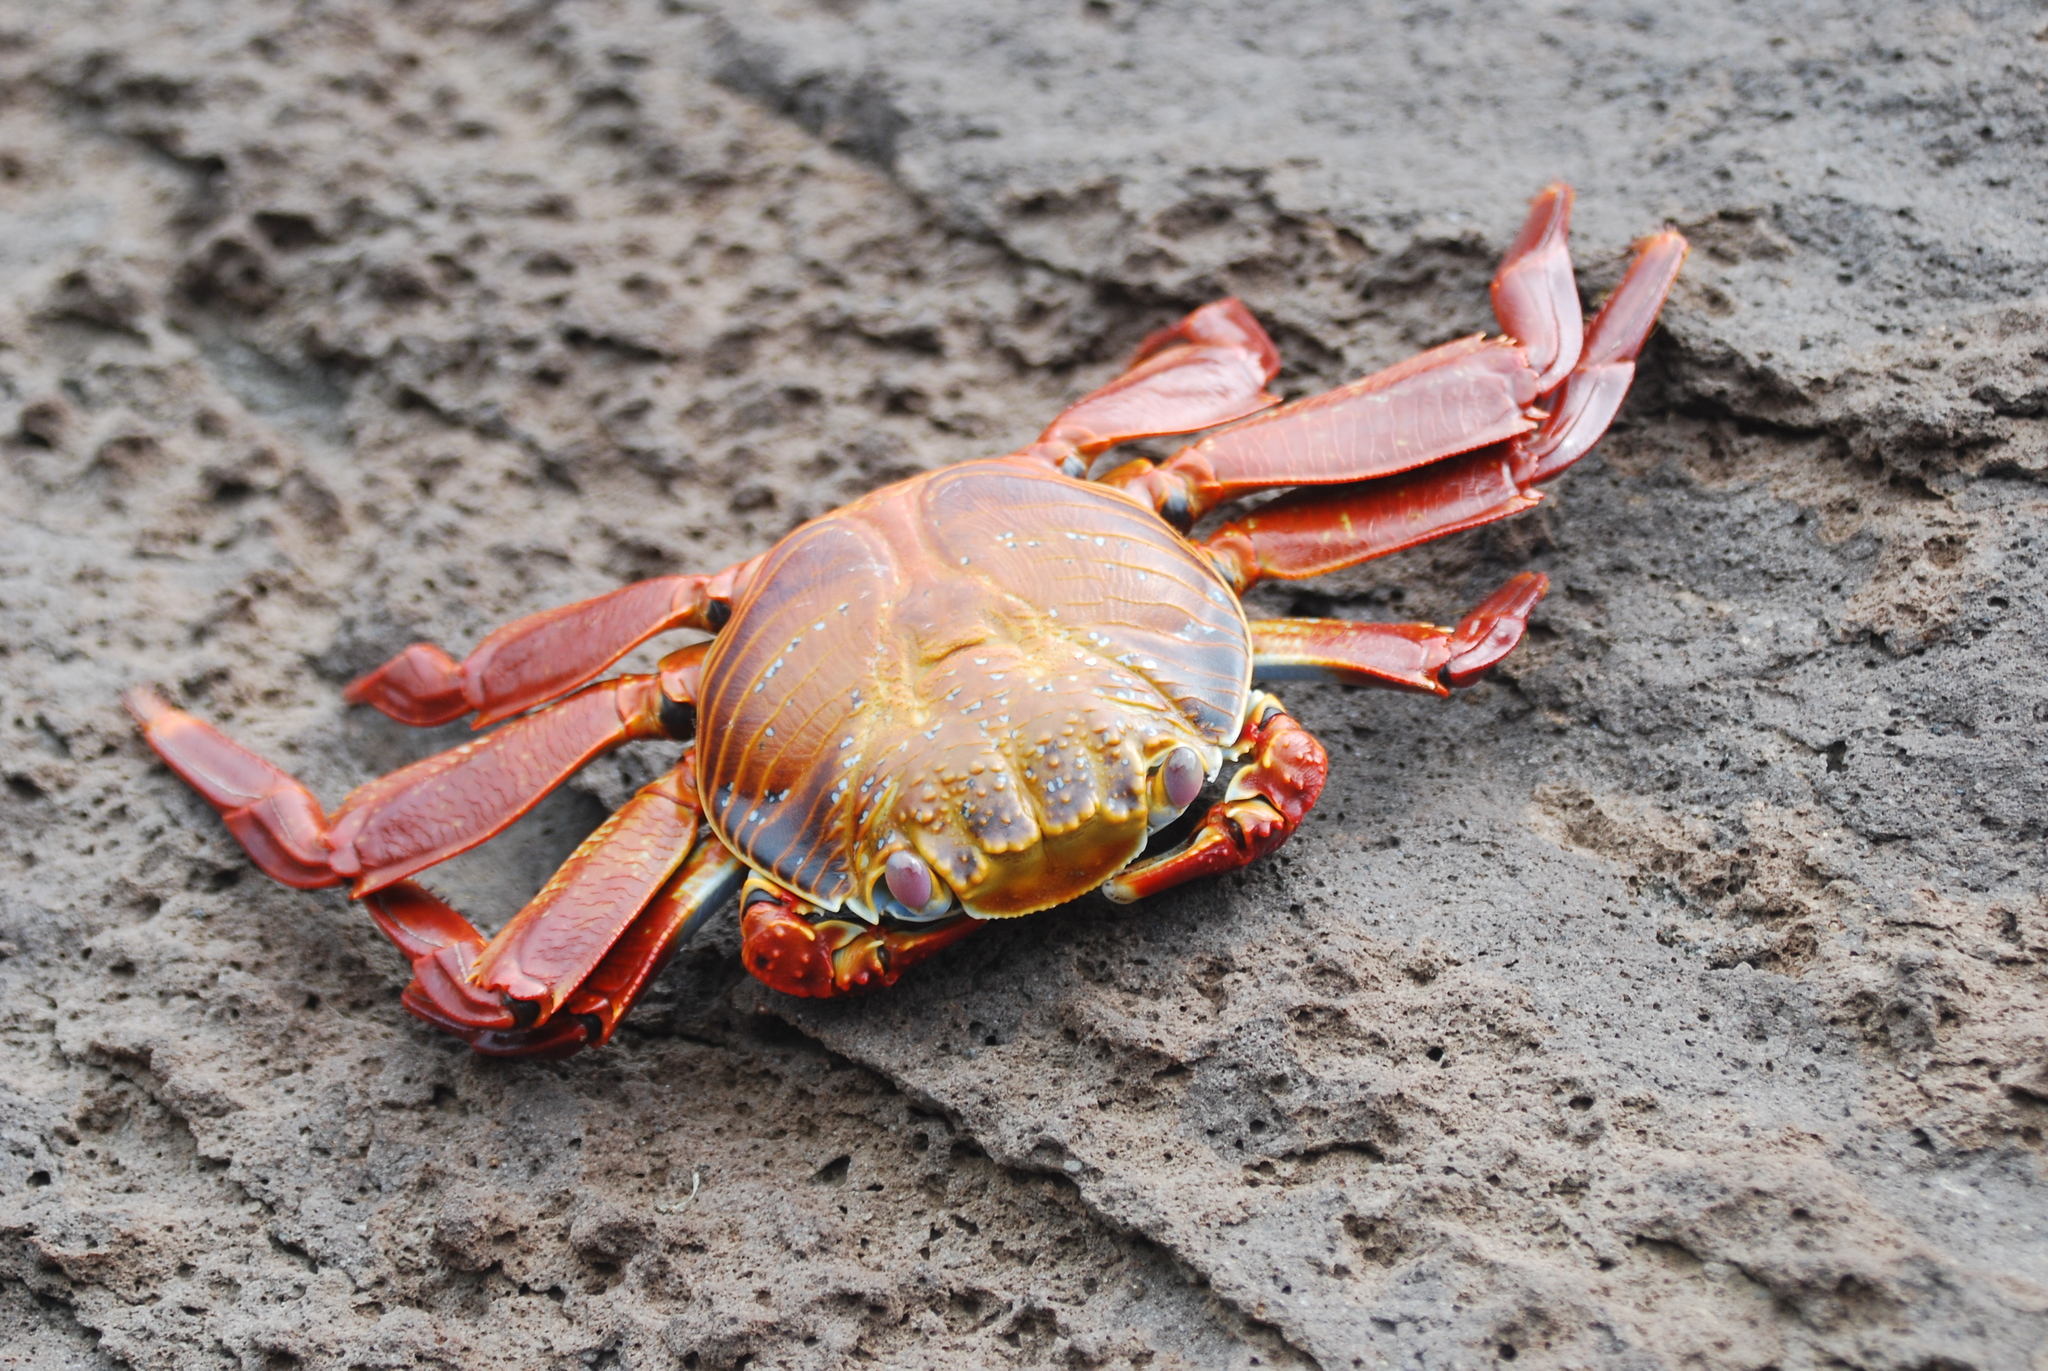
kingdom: Animalia
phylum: Arthropoda
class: Malacostraca
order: Decapoda
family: Grapsidae
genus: Grapsus
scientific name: Grapsus grapsus
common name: Sally lightfoot
